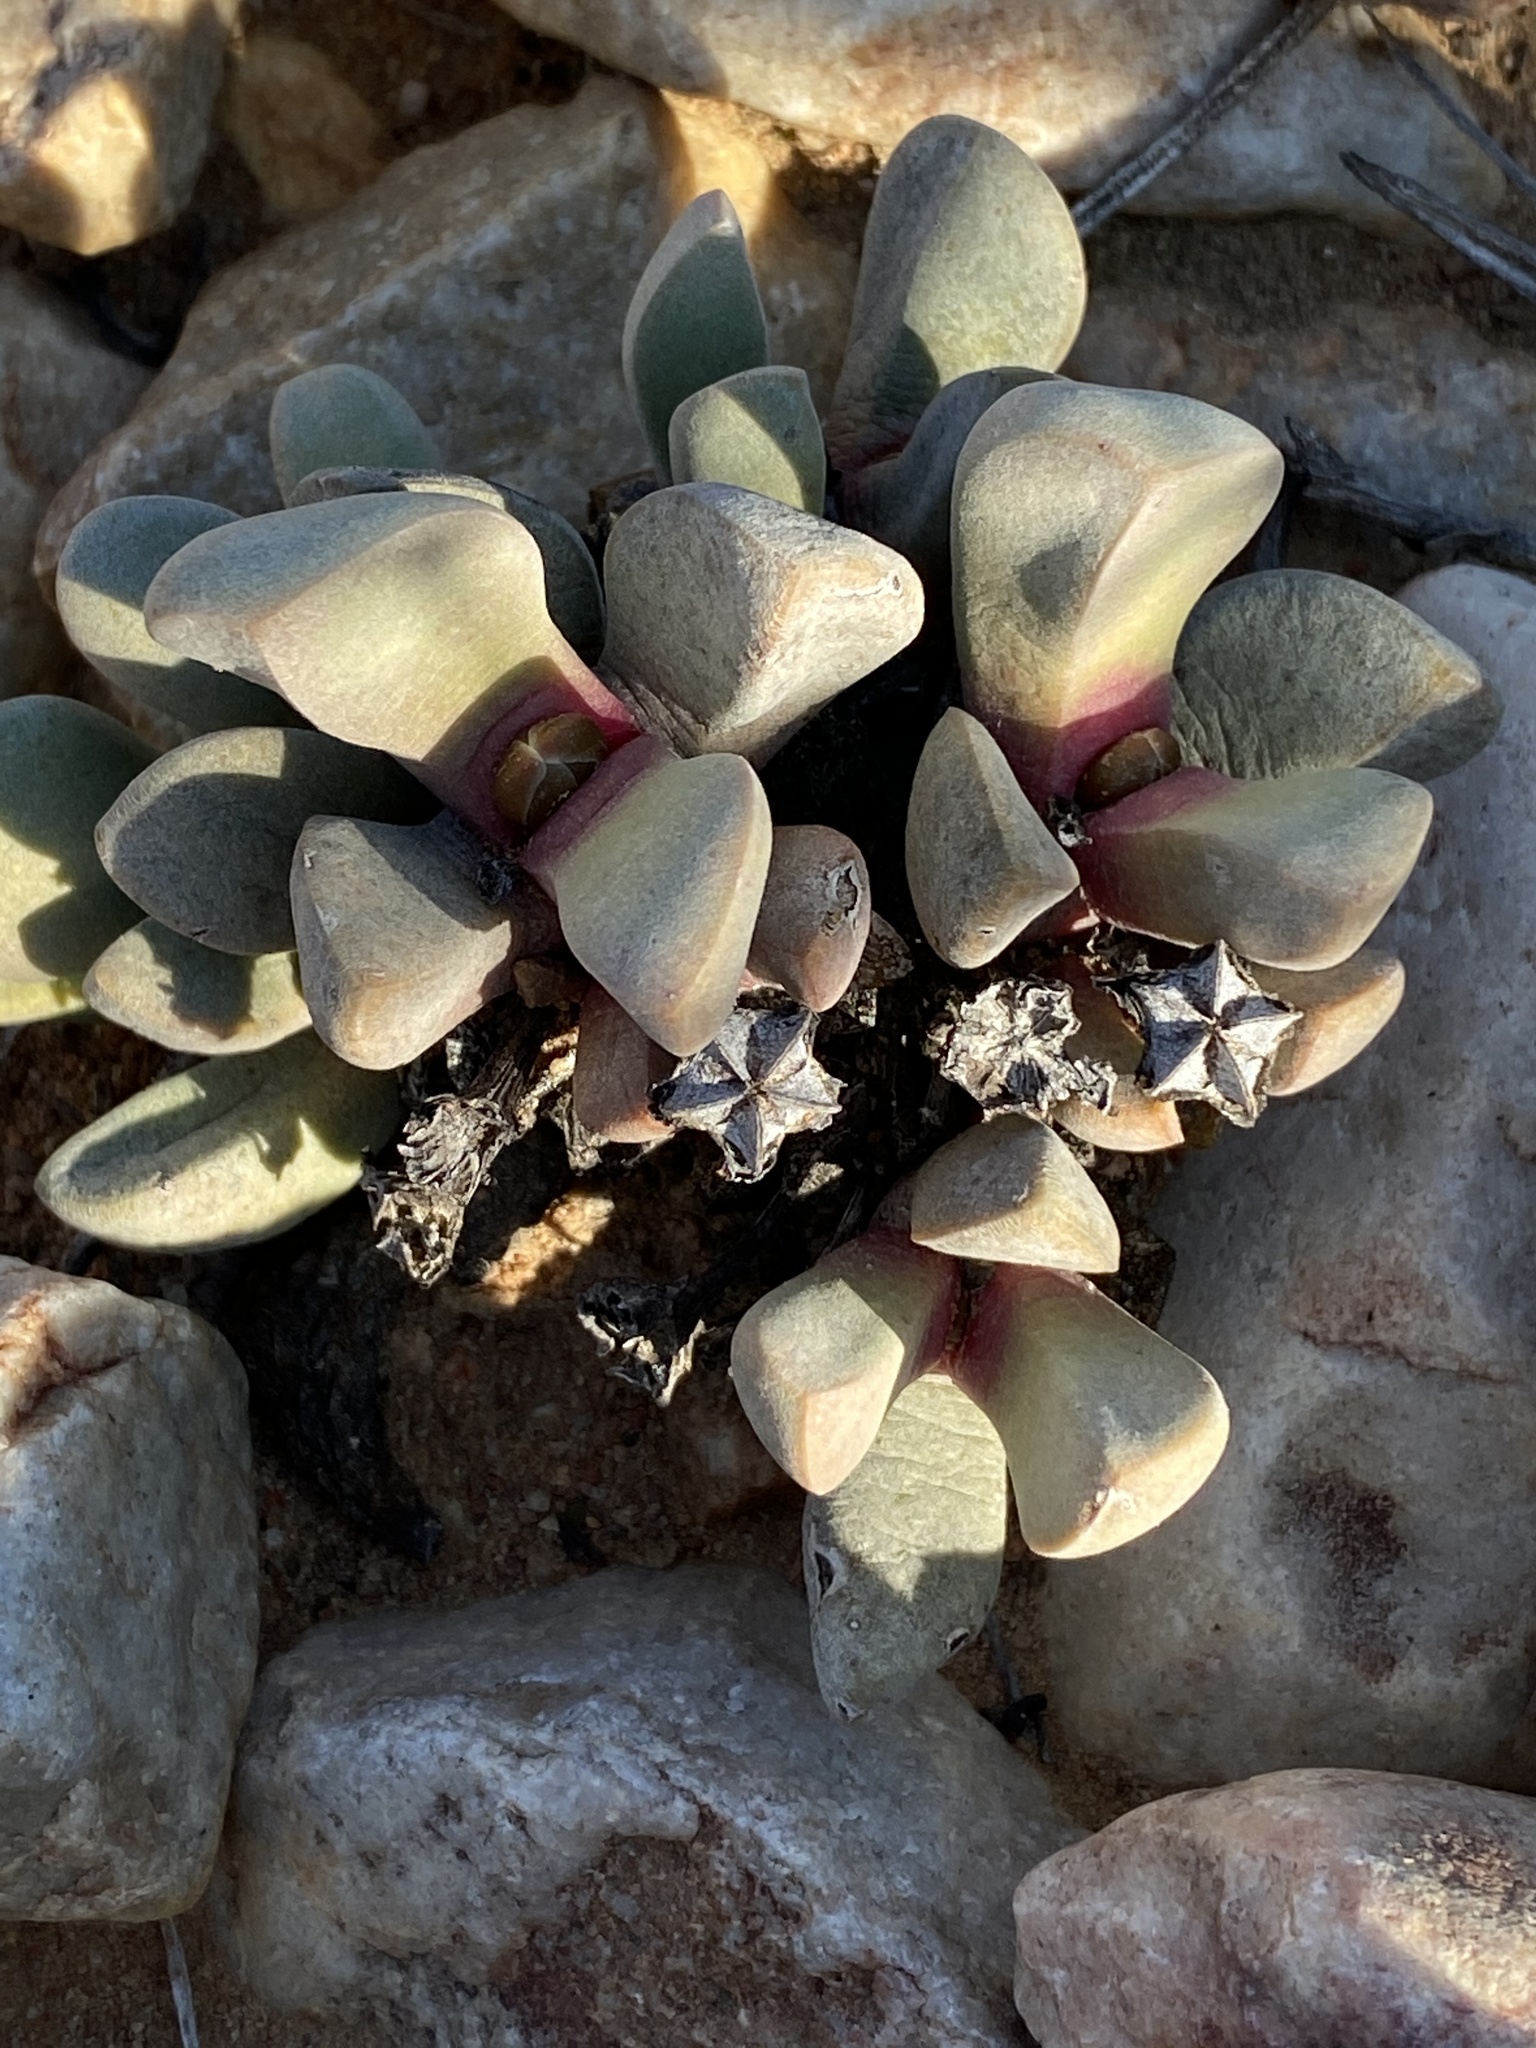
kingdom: Plantae
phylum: Tracheophyta
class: Magnoliopsida
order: Caryophyllales
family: Aizoaceae
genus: Cerochlamys
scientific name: Cerochlamys pachyphylla
